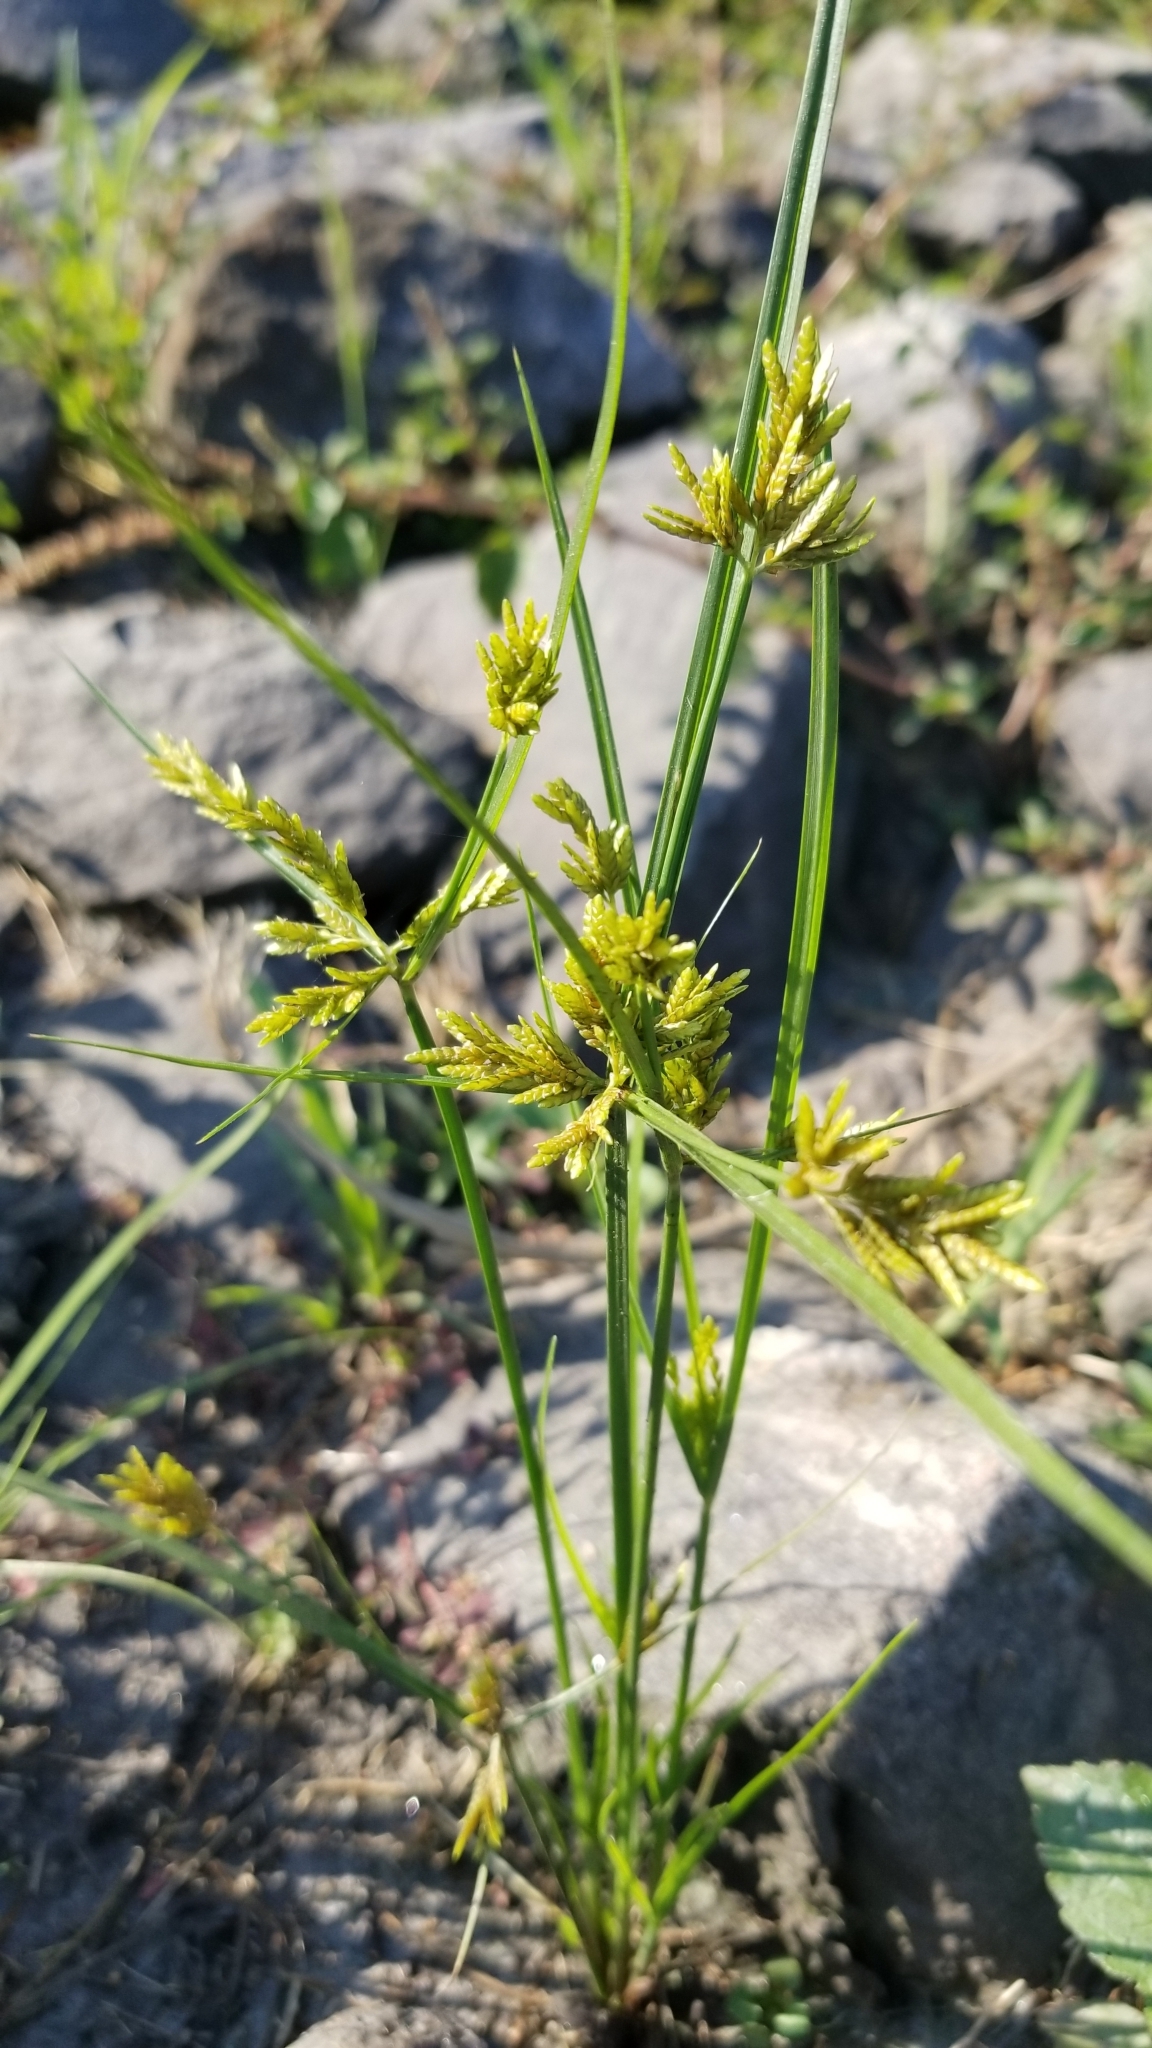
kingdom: Plantae
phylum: Tracheophyta
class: Liliopsida
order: Poales
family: Cyperaceae
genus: Cyperus
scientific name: Cyperus iria
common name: Ricefield flatsedge
